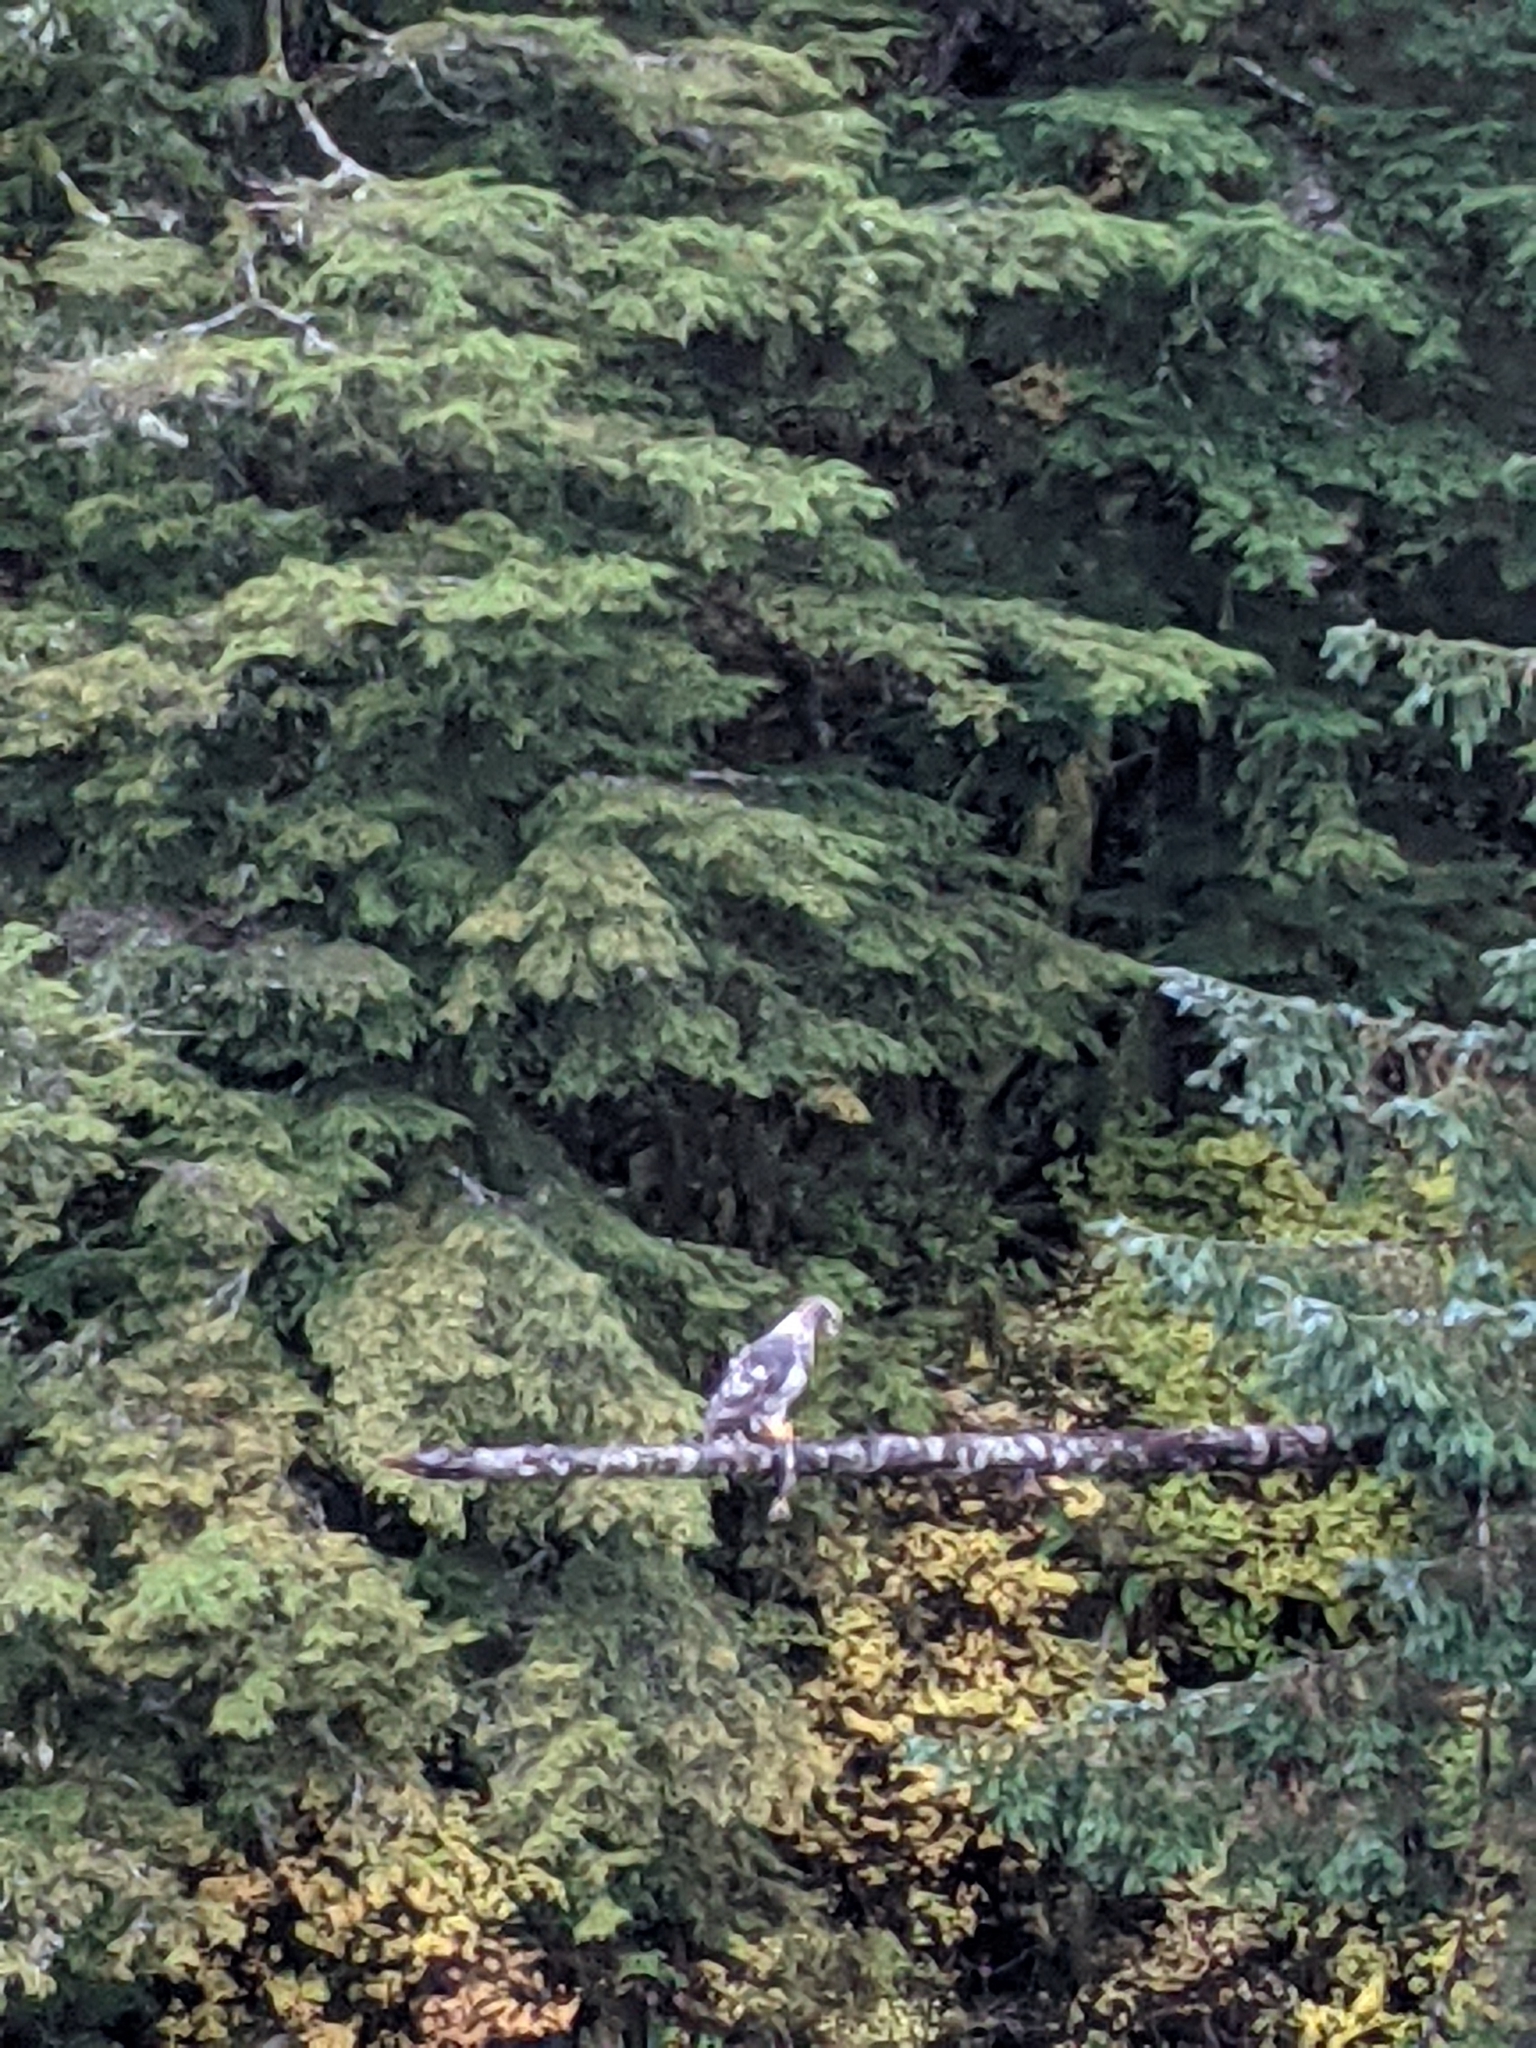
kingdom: Animalia
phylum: Chordata
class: Aves
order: Accipitriformes
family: Accipitridae
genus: Haliaeetus
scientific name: Haliaeetus leucocephalus
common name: Bald eagle
